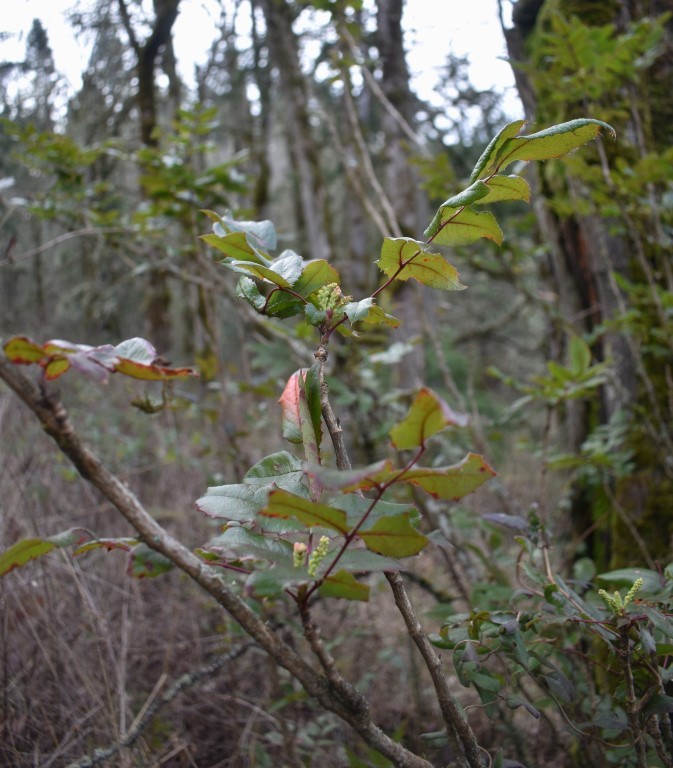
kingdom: Plantae
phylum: Tracheophyta
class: Magnoliopsida
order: Ranunculales
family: Berberidaceae
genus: Mahonia
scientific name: Mahonia aquifolium
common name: Oregon-grape
